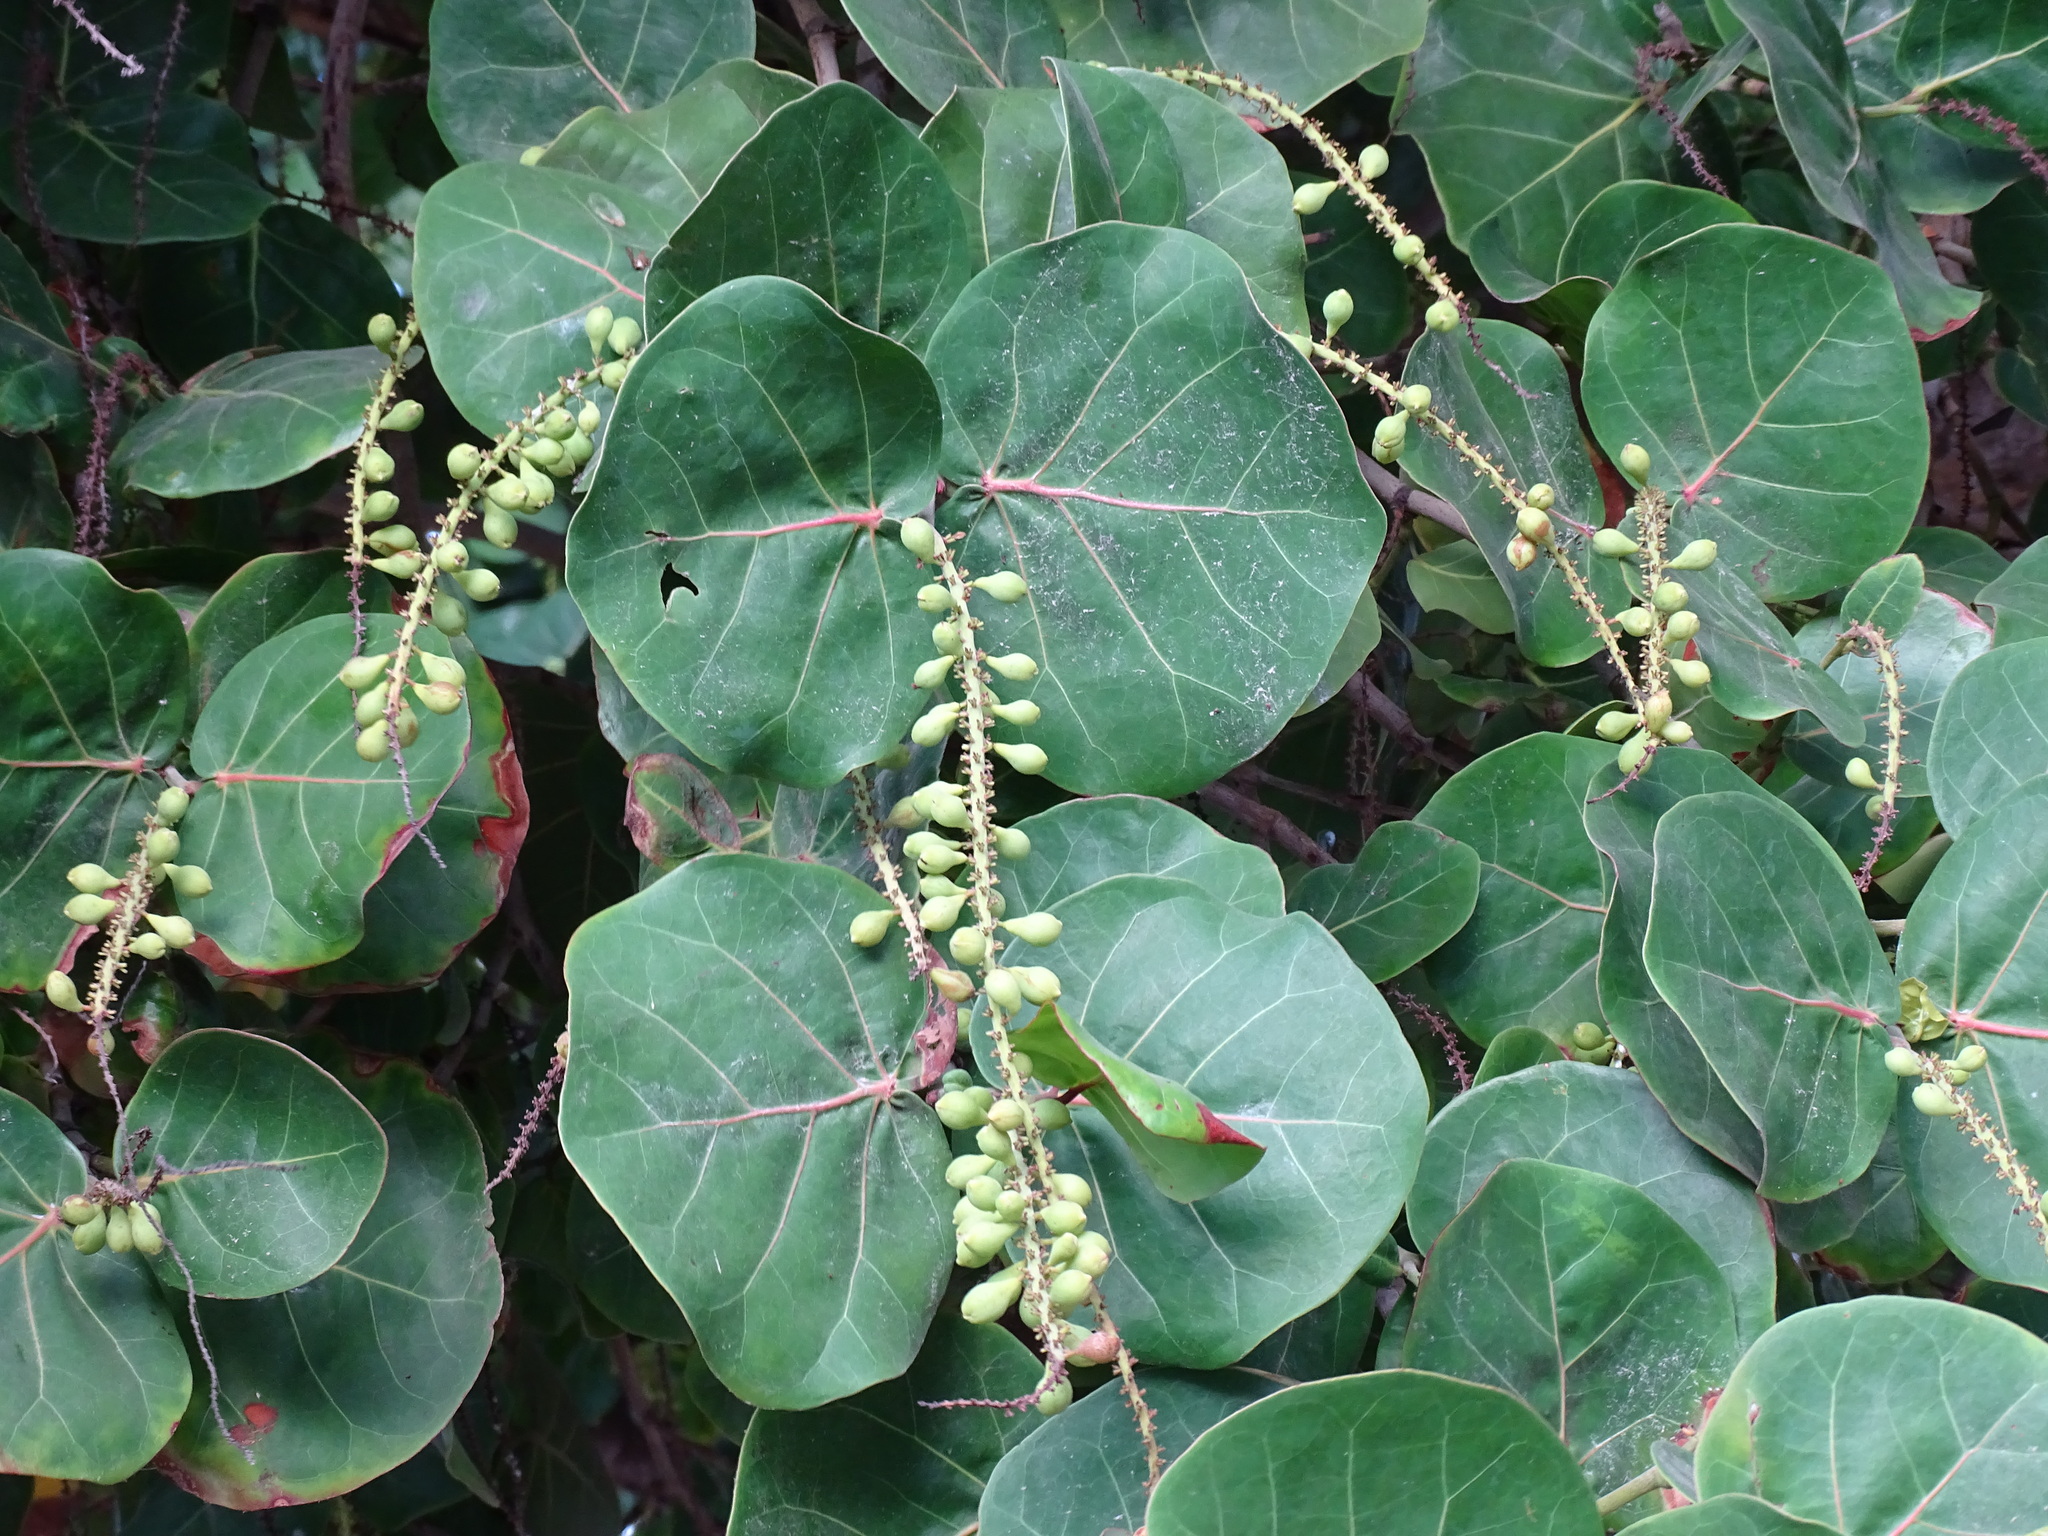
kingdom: Plantae
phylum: Tracheophyta
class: Magnoliopsida
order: Caryophyllales
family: Polygonaceae
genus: Coccoloba
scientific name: Coccoloba uvifera
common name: Seagrape
